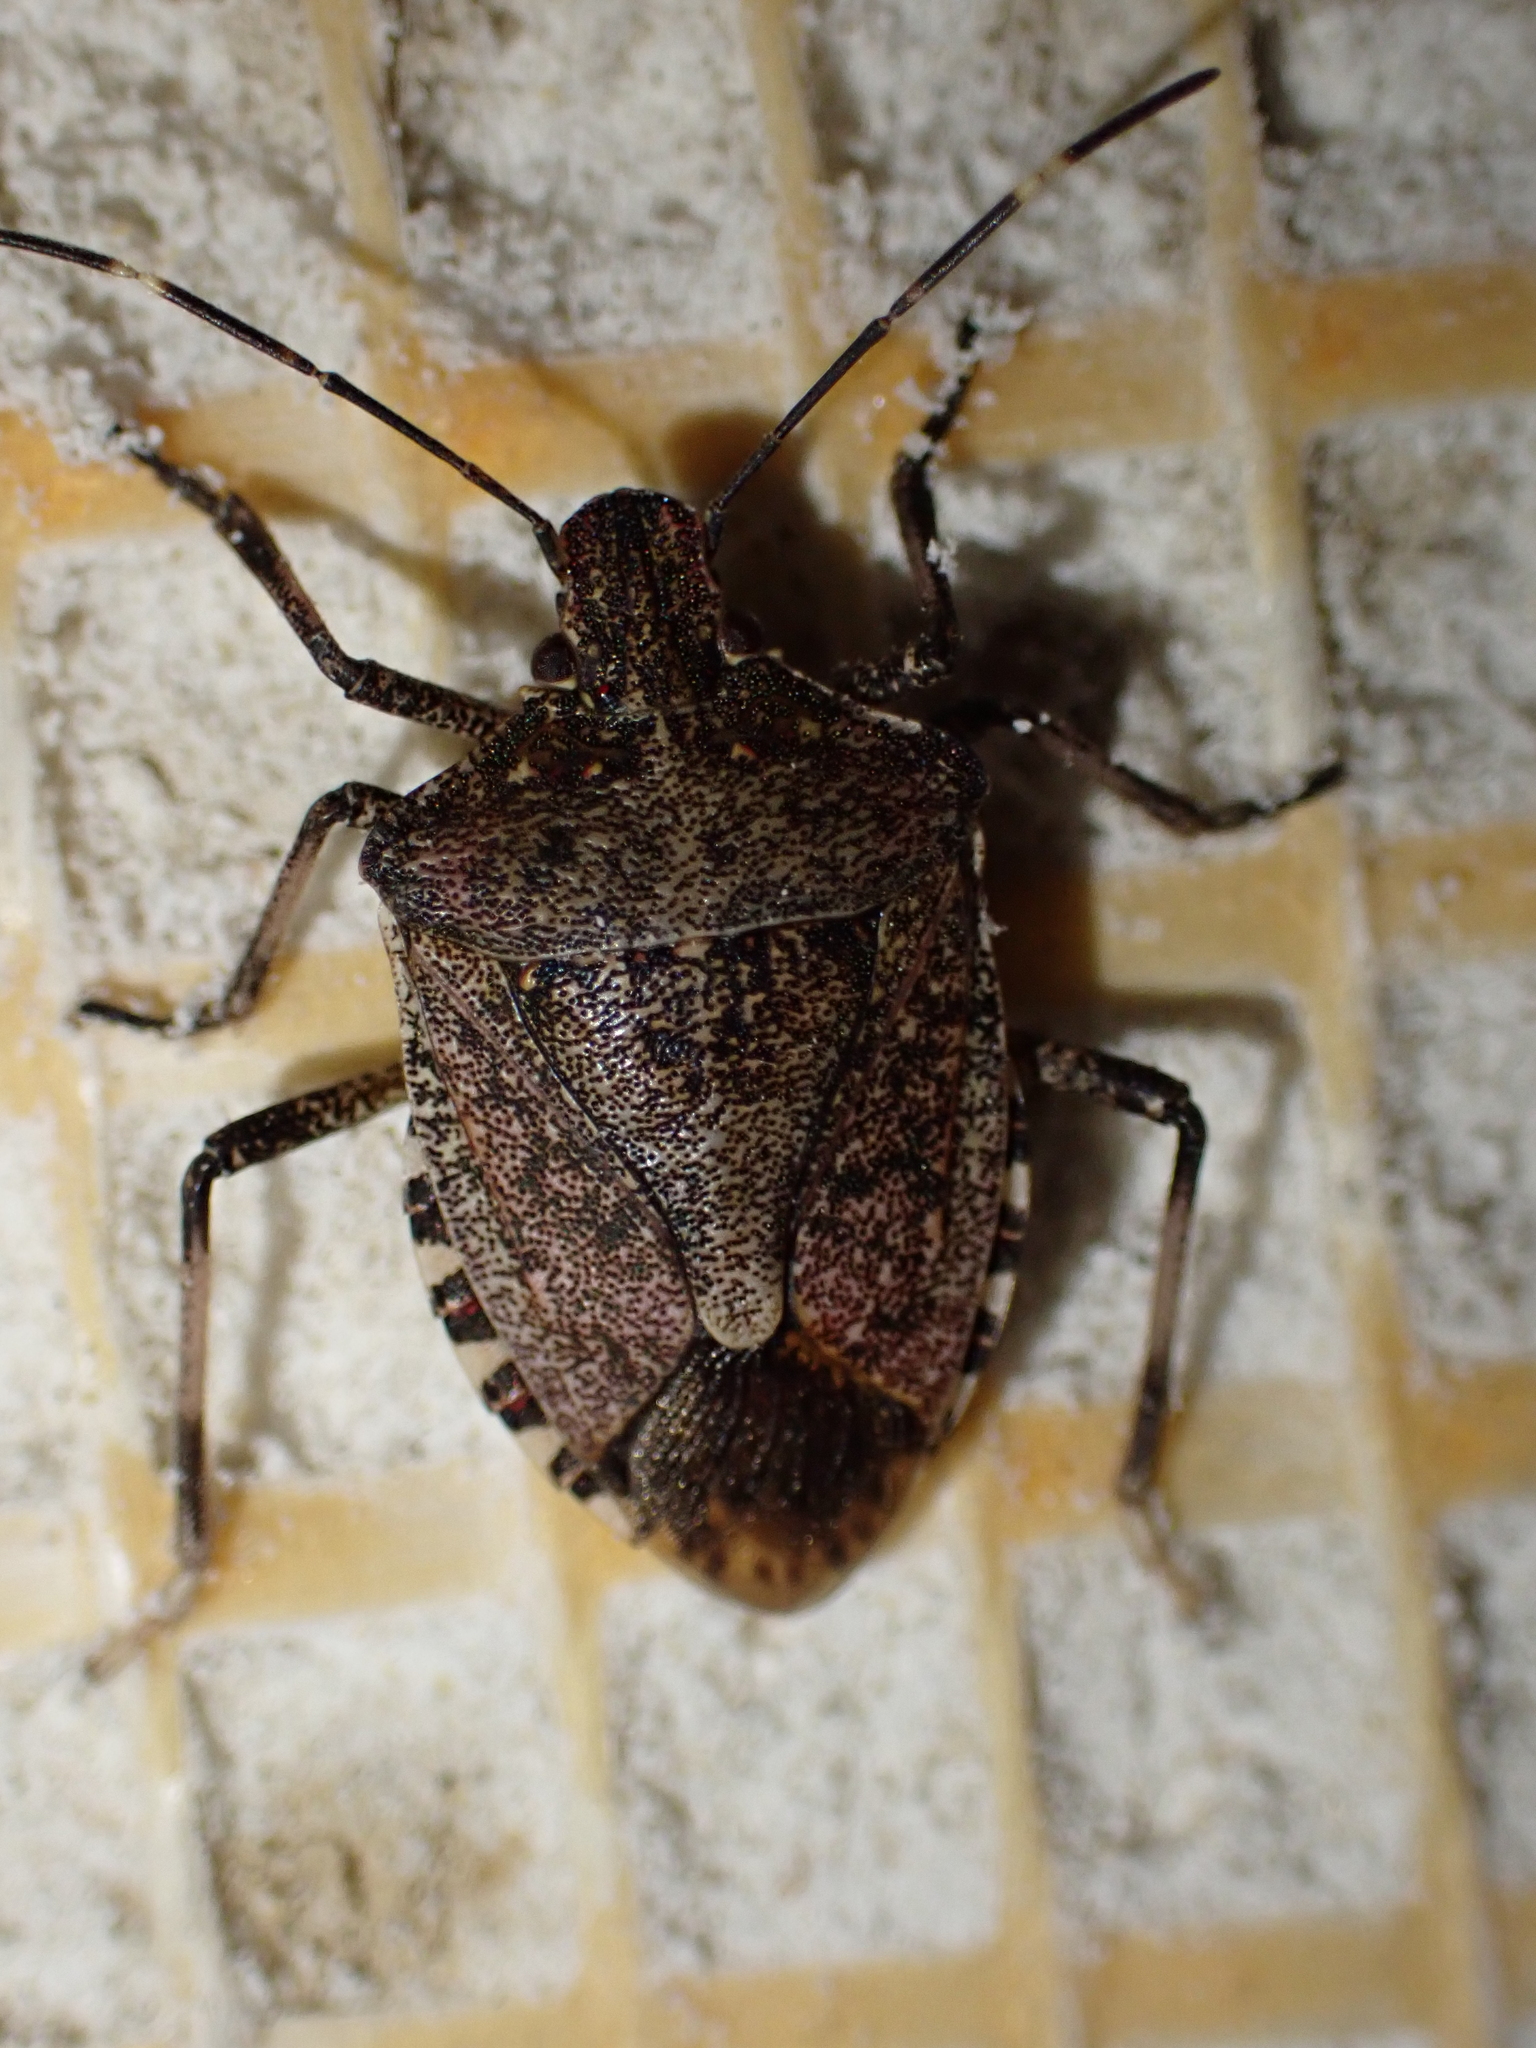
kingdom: Animalia
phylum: Arthropoda
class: Insecta
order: Hemiptera
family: Pentatomidae
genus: Halyomorpha
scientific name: Halyomorpha halys
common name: Brown marmorated stink bug
